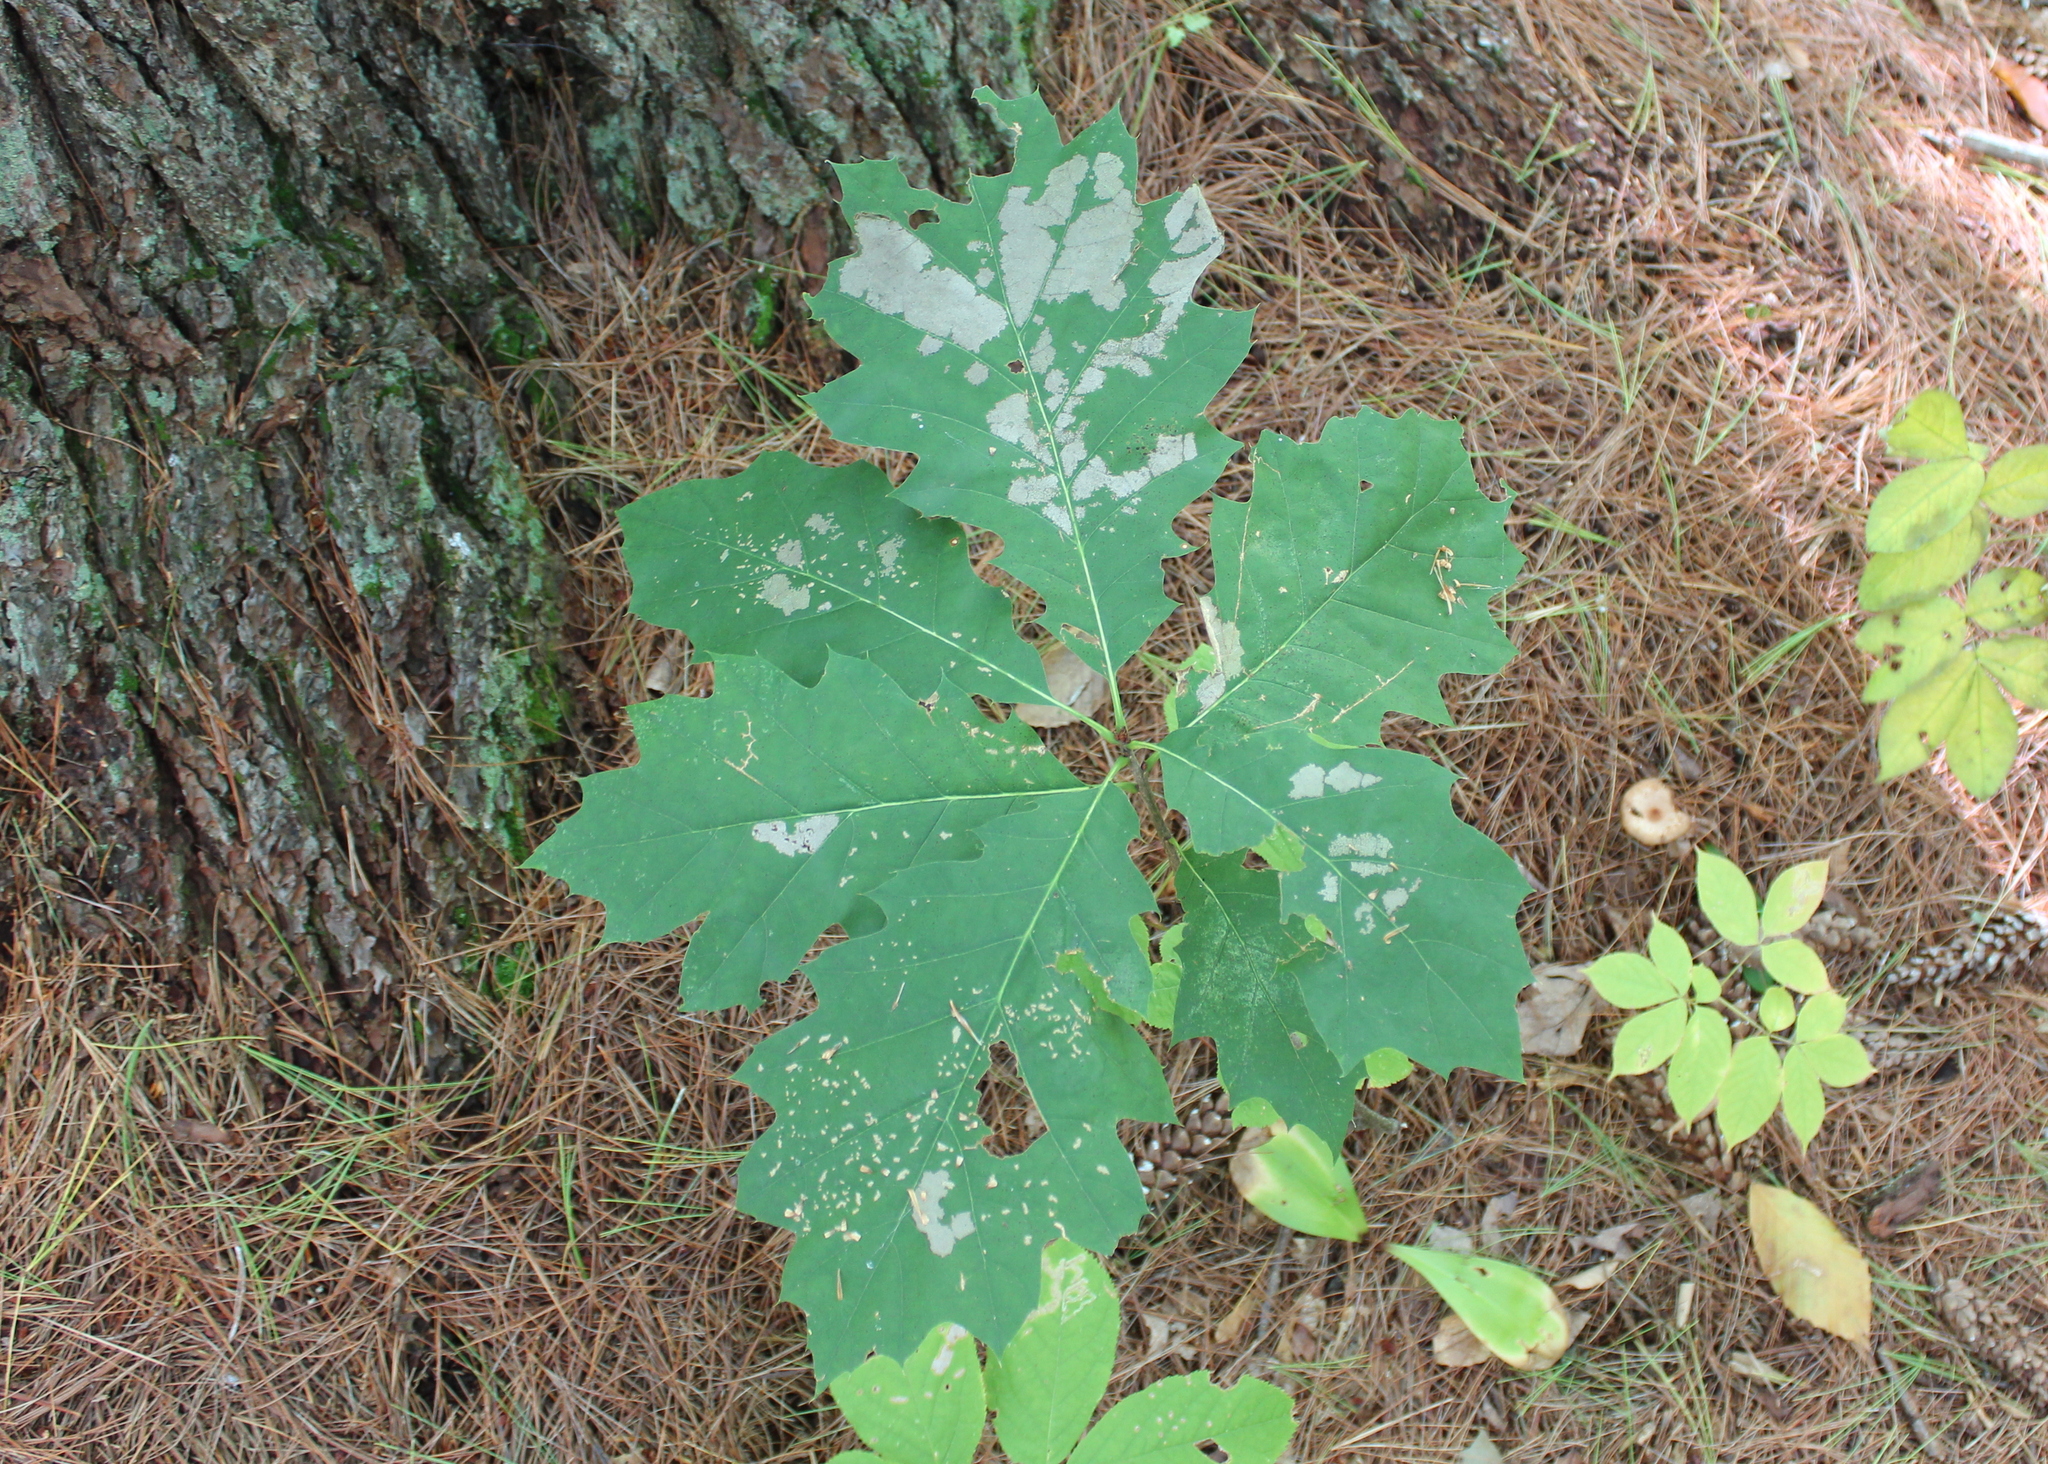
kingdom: Plantae
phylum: Tracheophyta
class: Magnoliopsida
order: Fagales
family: Fagaceae
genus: Quercus
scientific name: Quercus rubra
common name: Red oak
